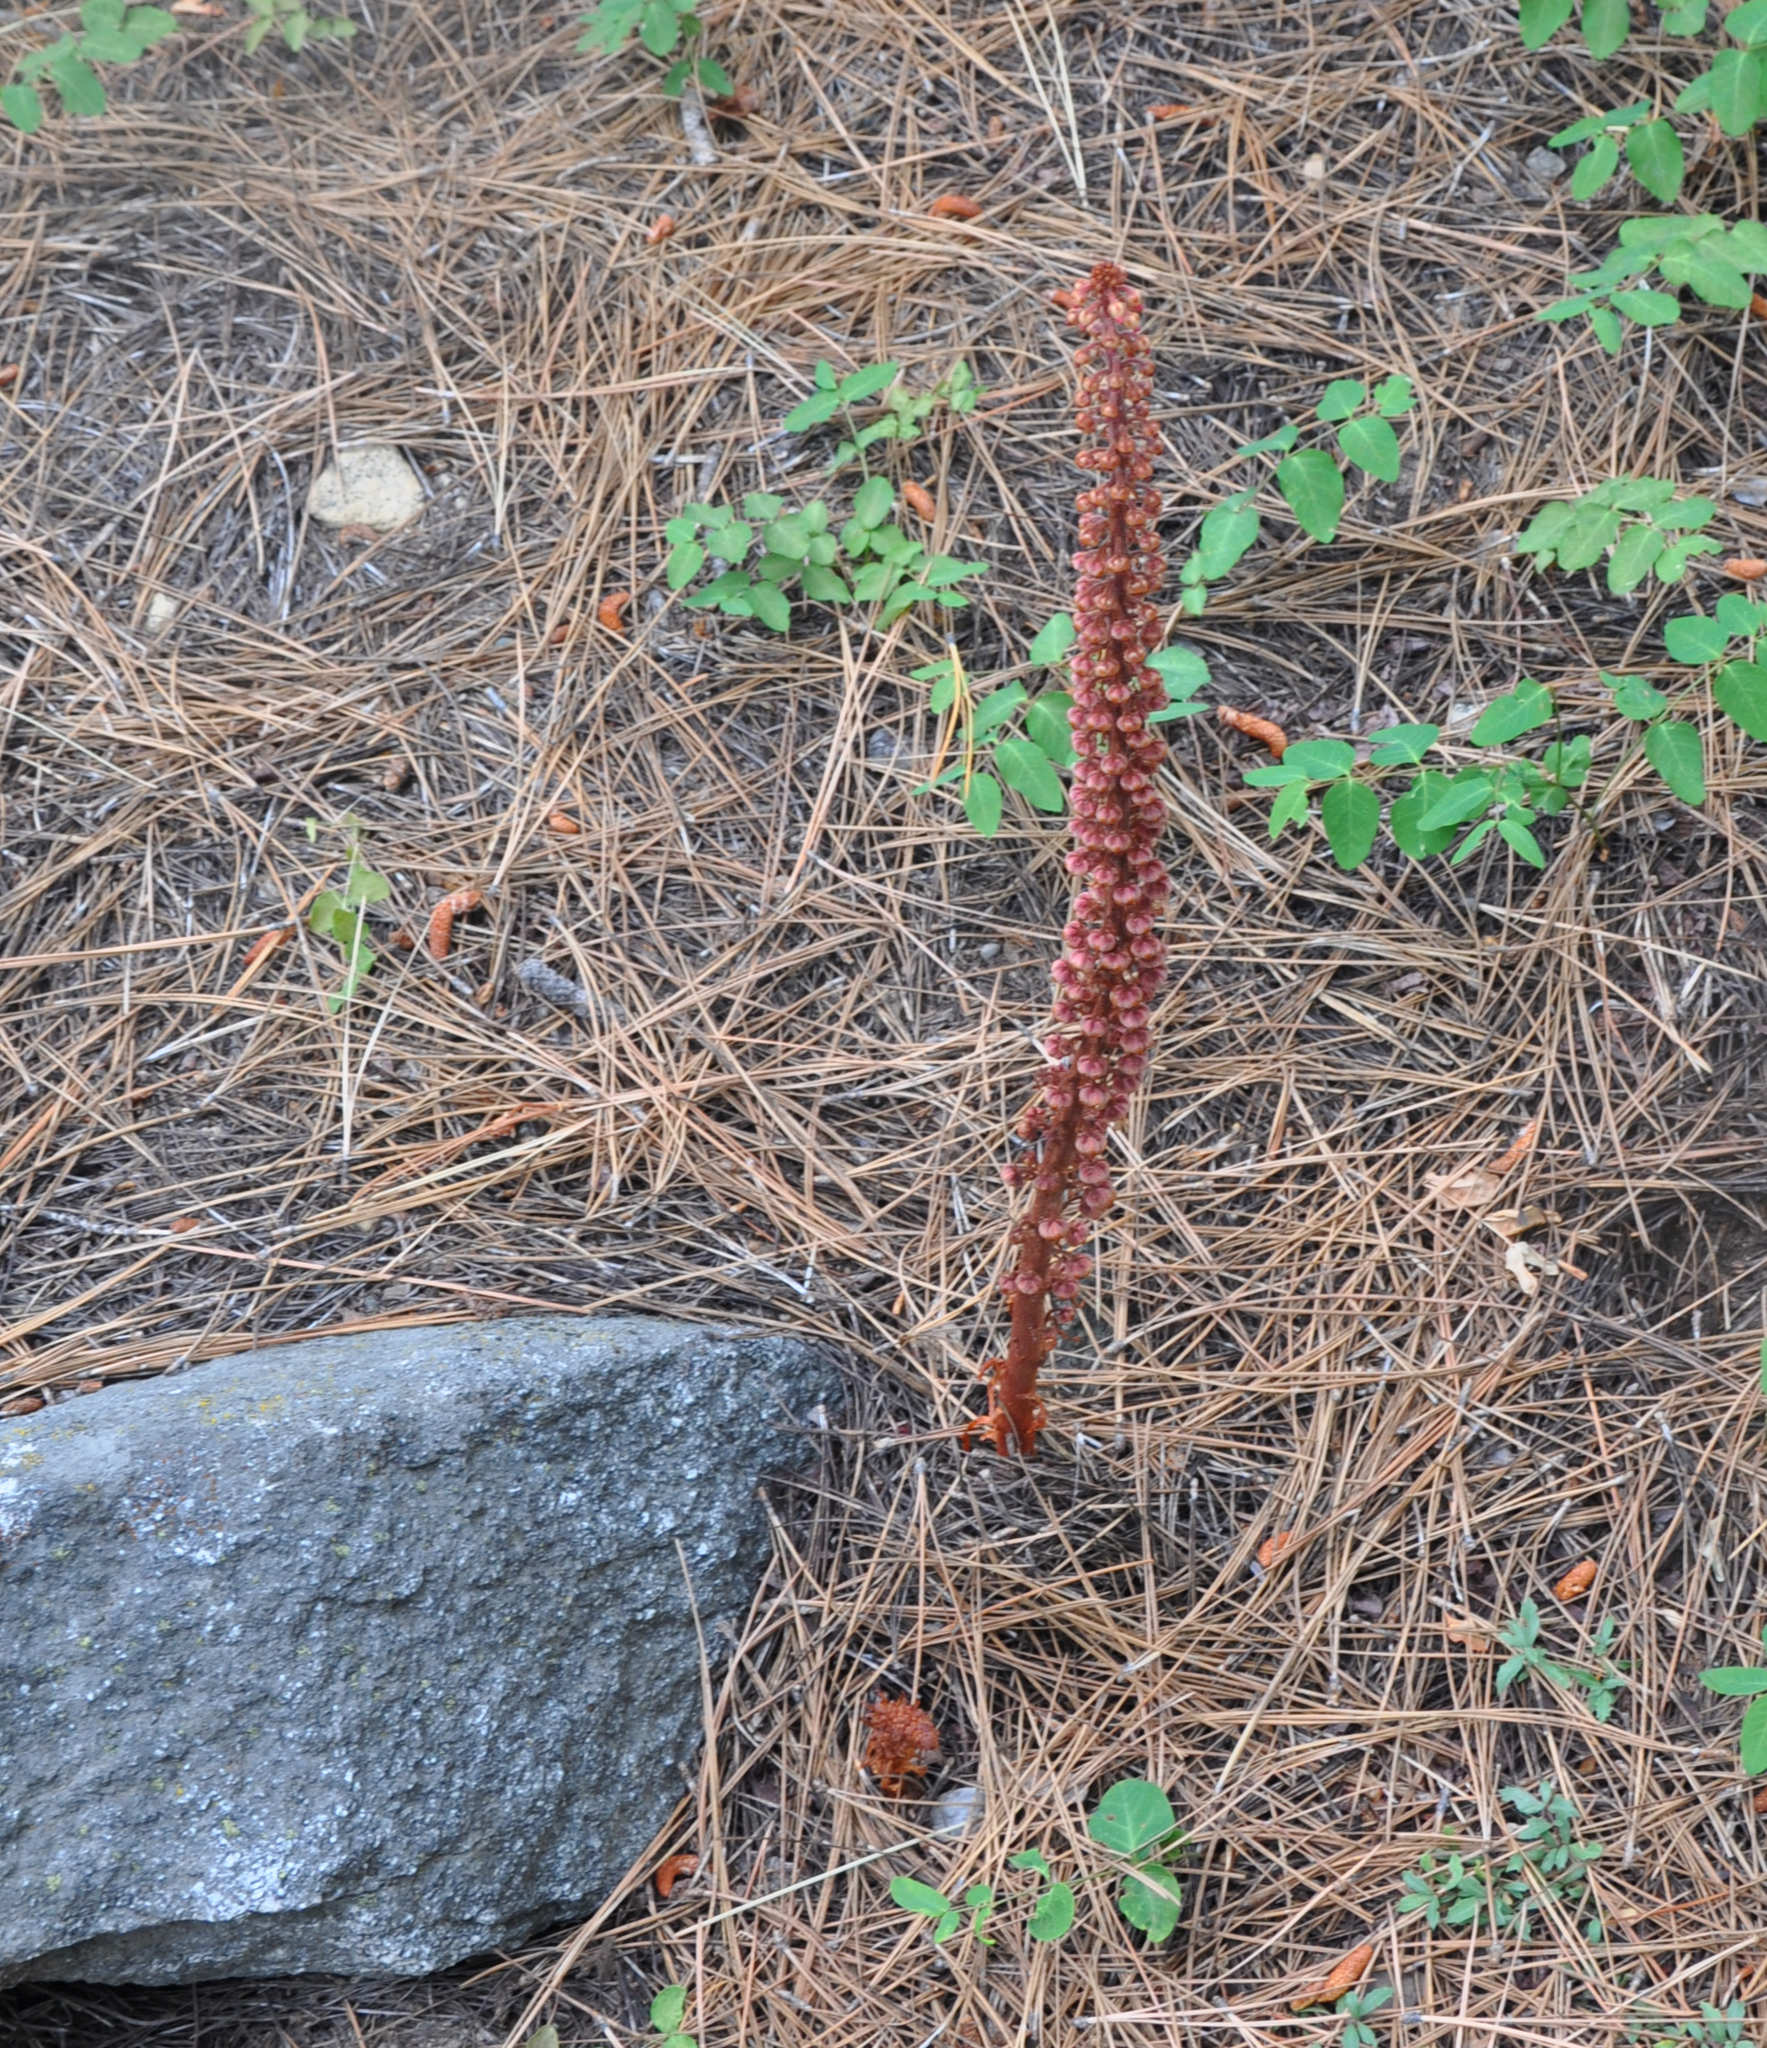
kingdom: Plantae
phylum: Tracheophyta
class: Magnoliopsida
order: Ericales
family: Ericaceae
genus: Pterospora
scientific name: Pterospora andromedea
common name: Giant bird's-nest
